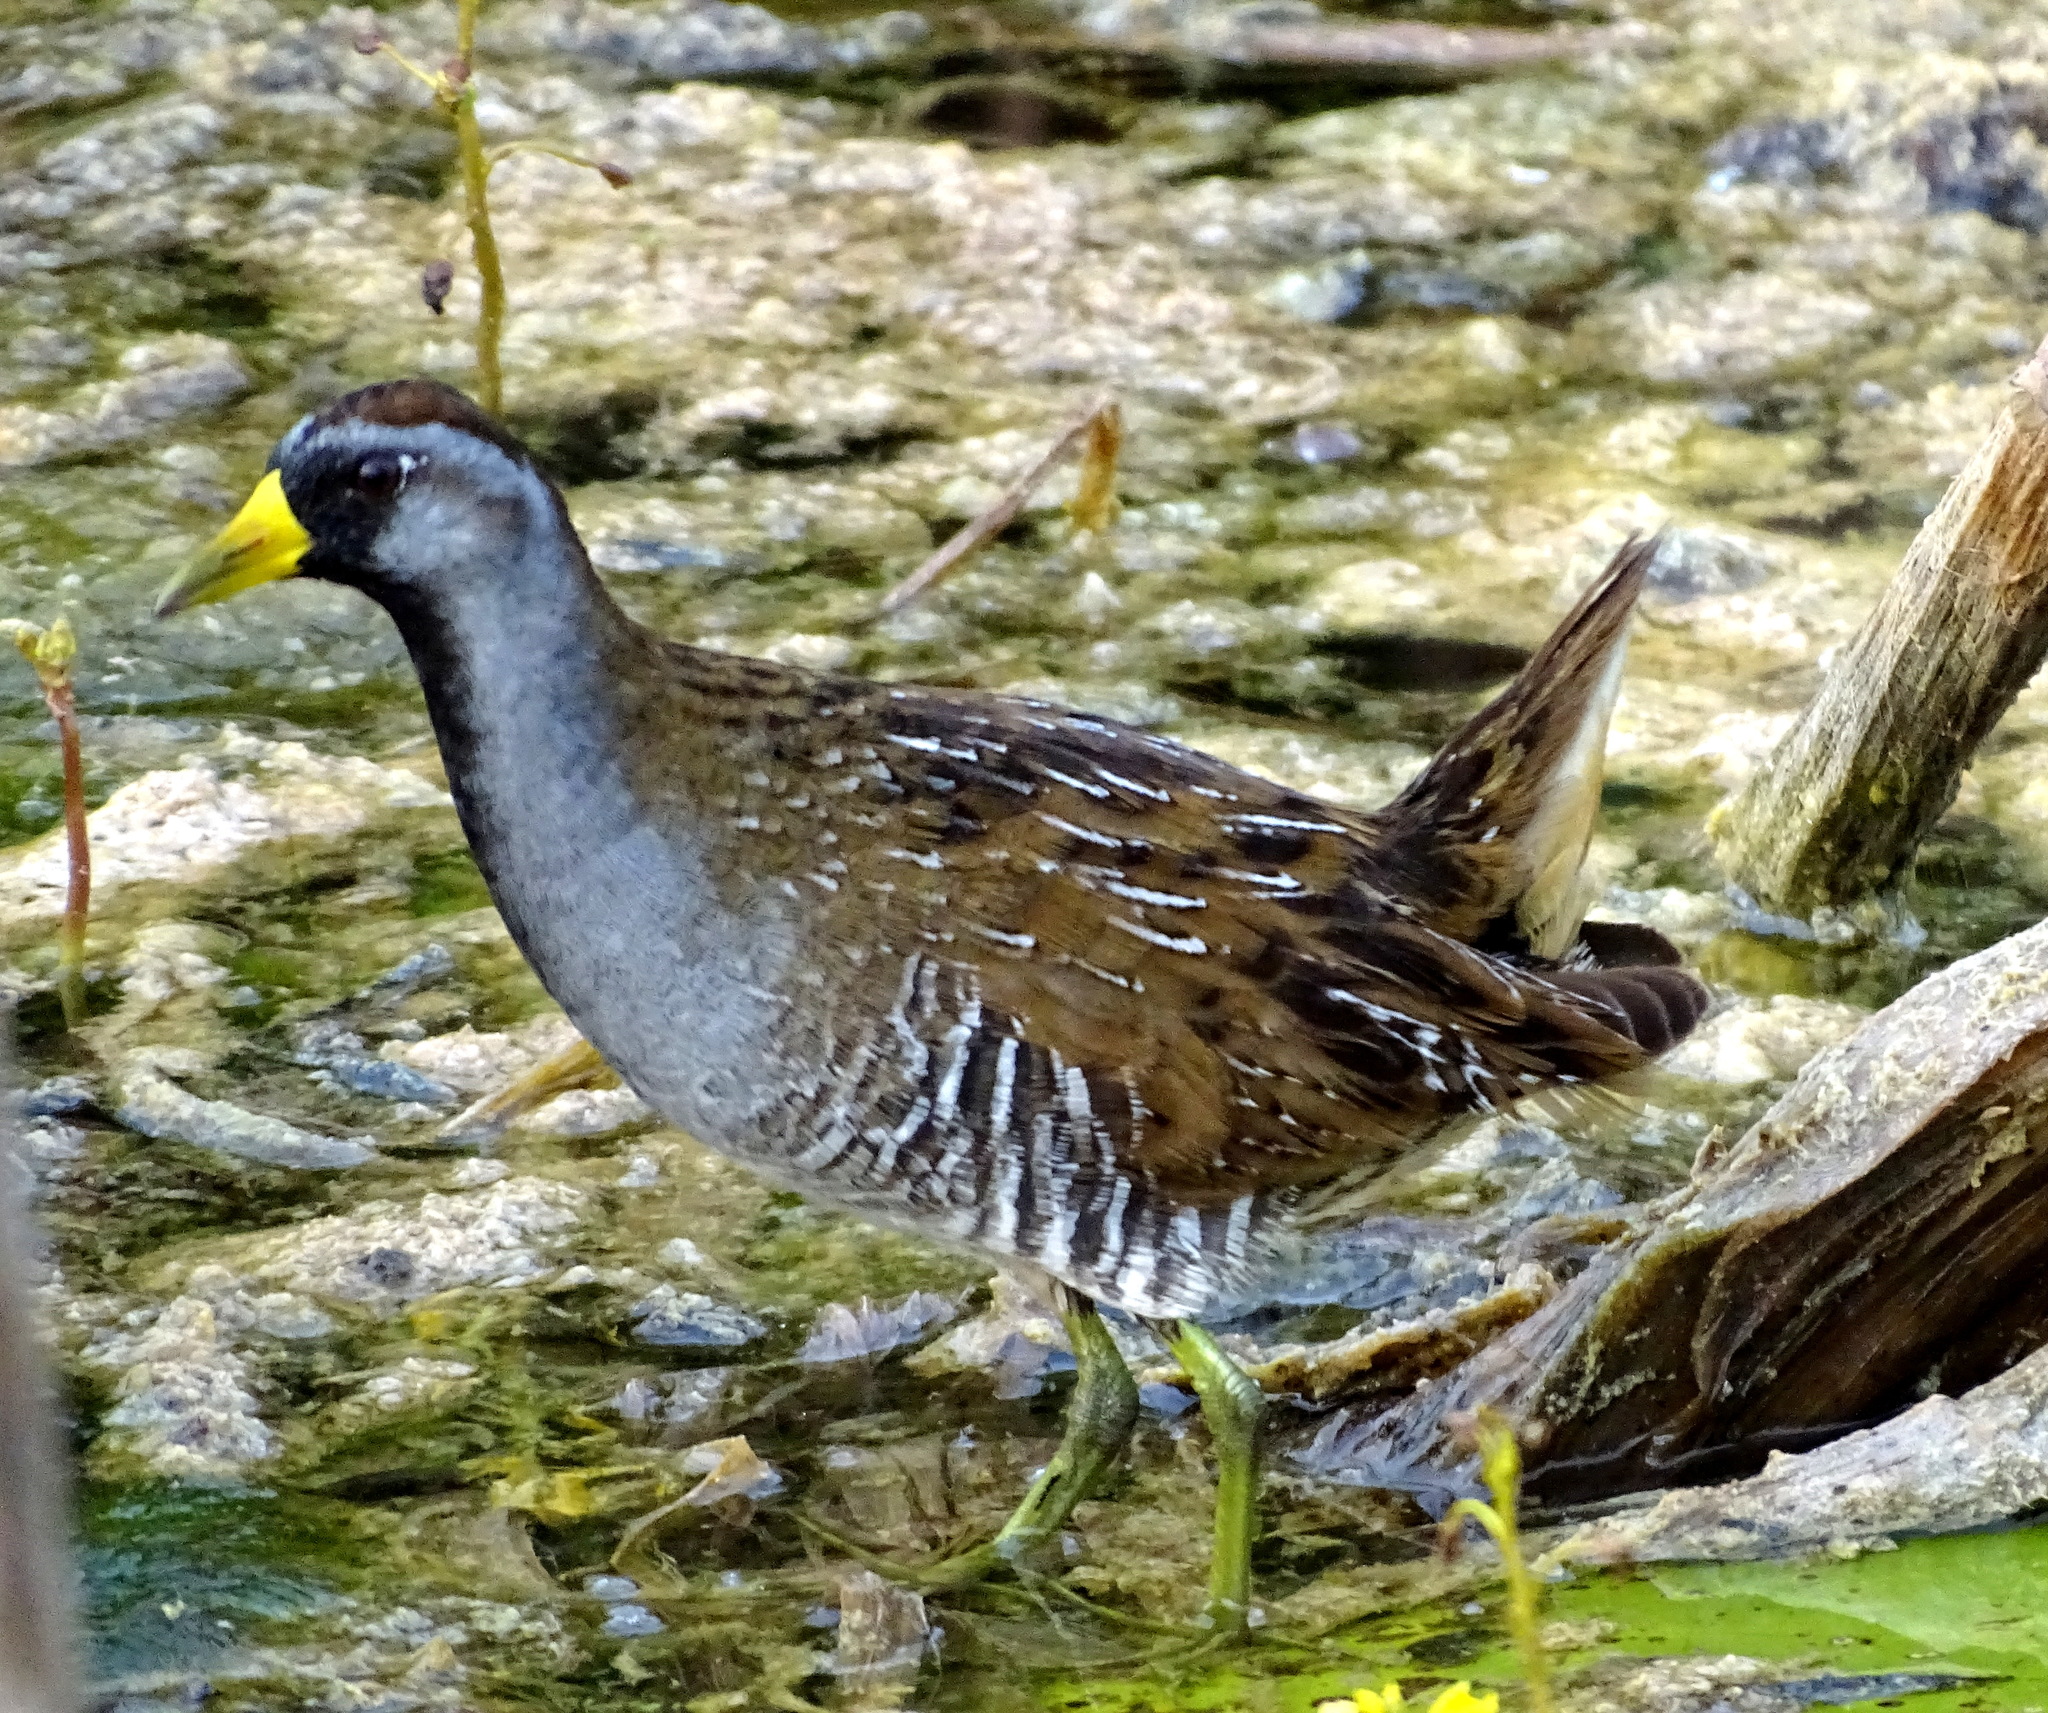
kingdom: Animalia
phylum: Chordata
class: Aves
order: Gruiformes
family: Rallidae
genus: Porzana
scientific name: Porzana carolina
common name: Sora
